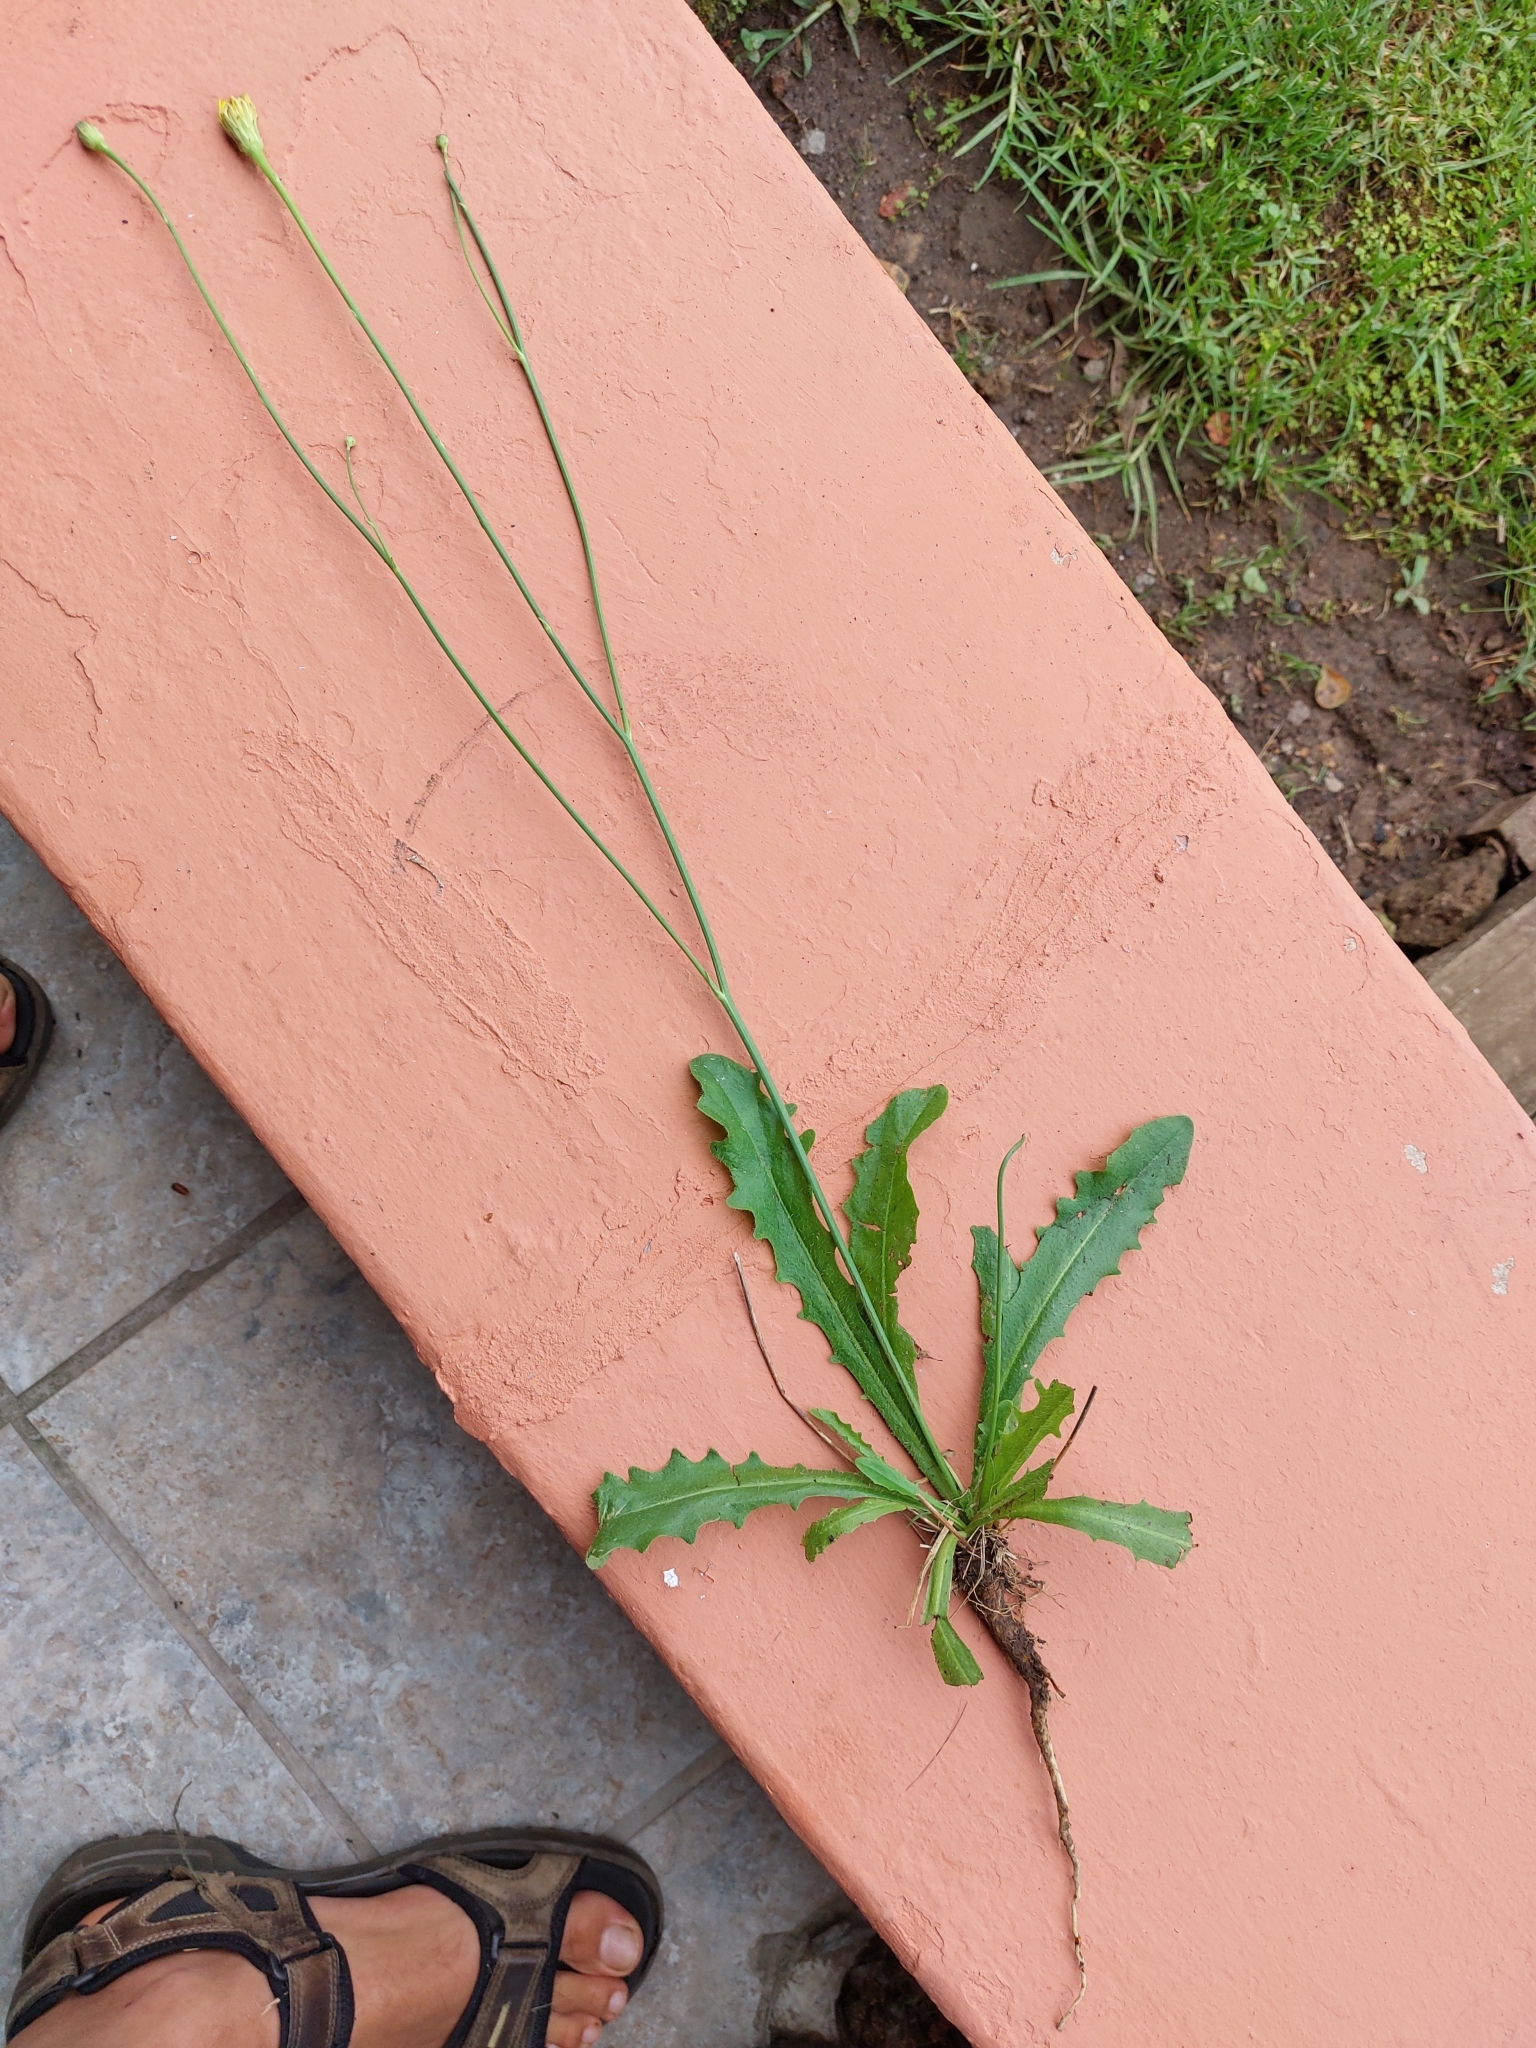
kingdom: Plantae
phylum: Tracheophyta
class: Magnoliopsida
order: Asterales
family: Asteraceae
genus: Hypochaeris
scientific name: Hypochaeris radicata
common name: Flatweed
